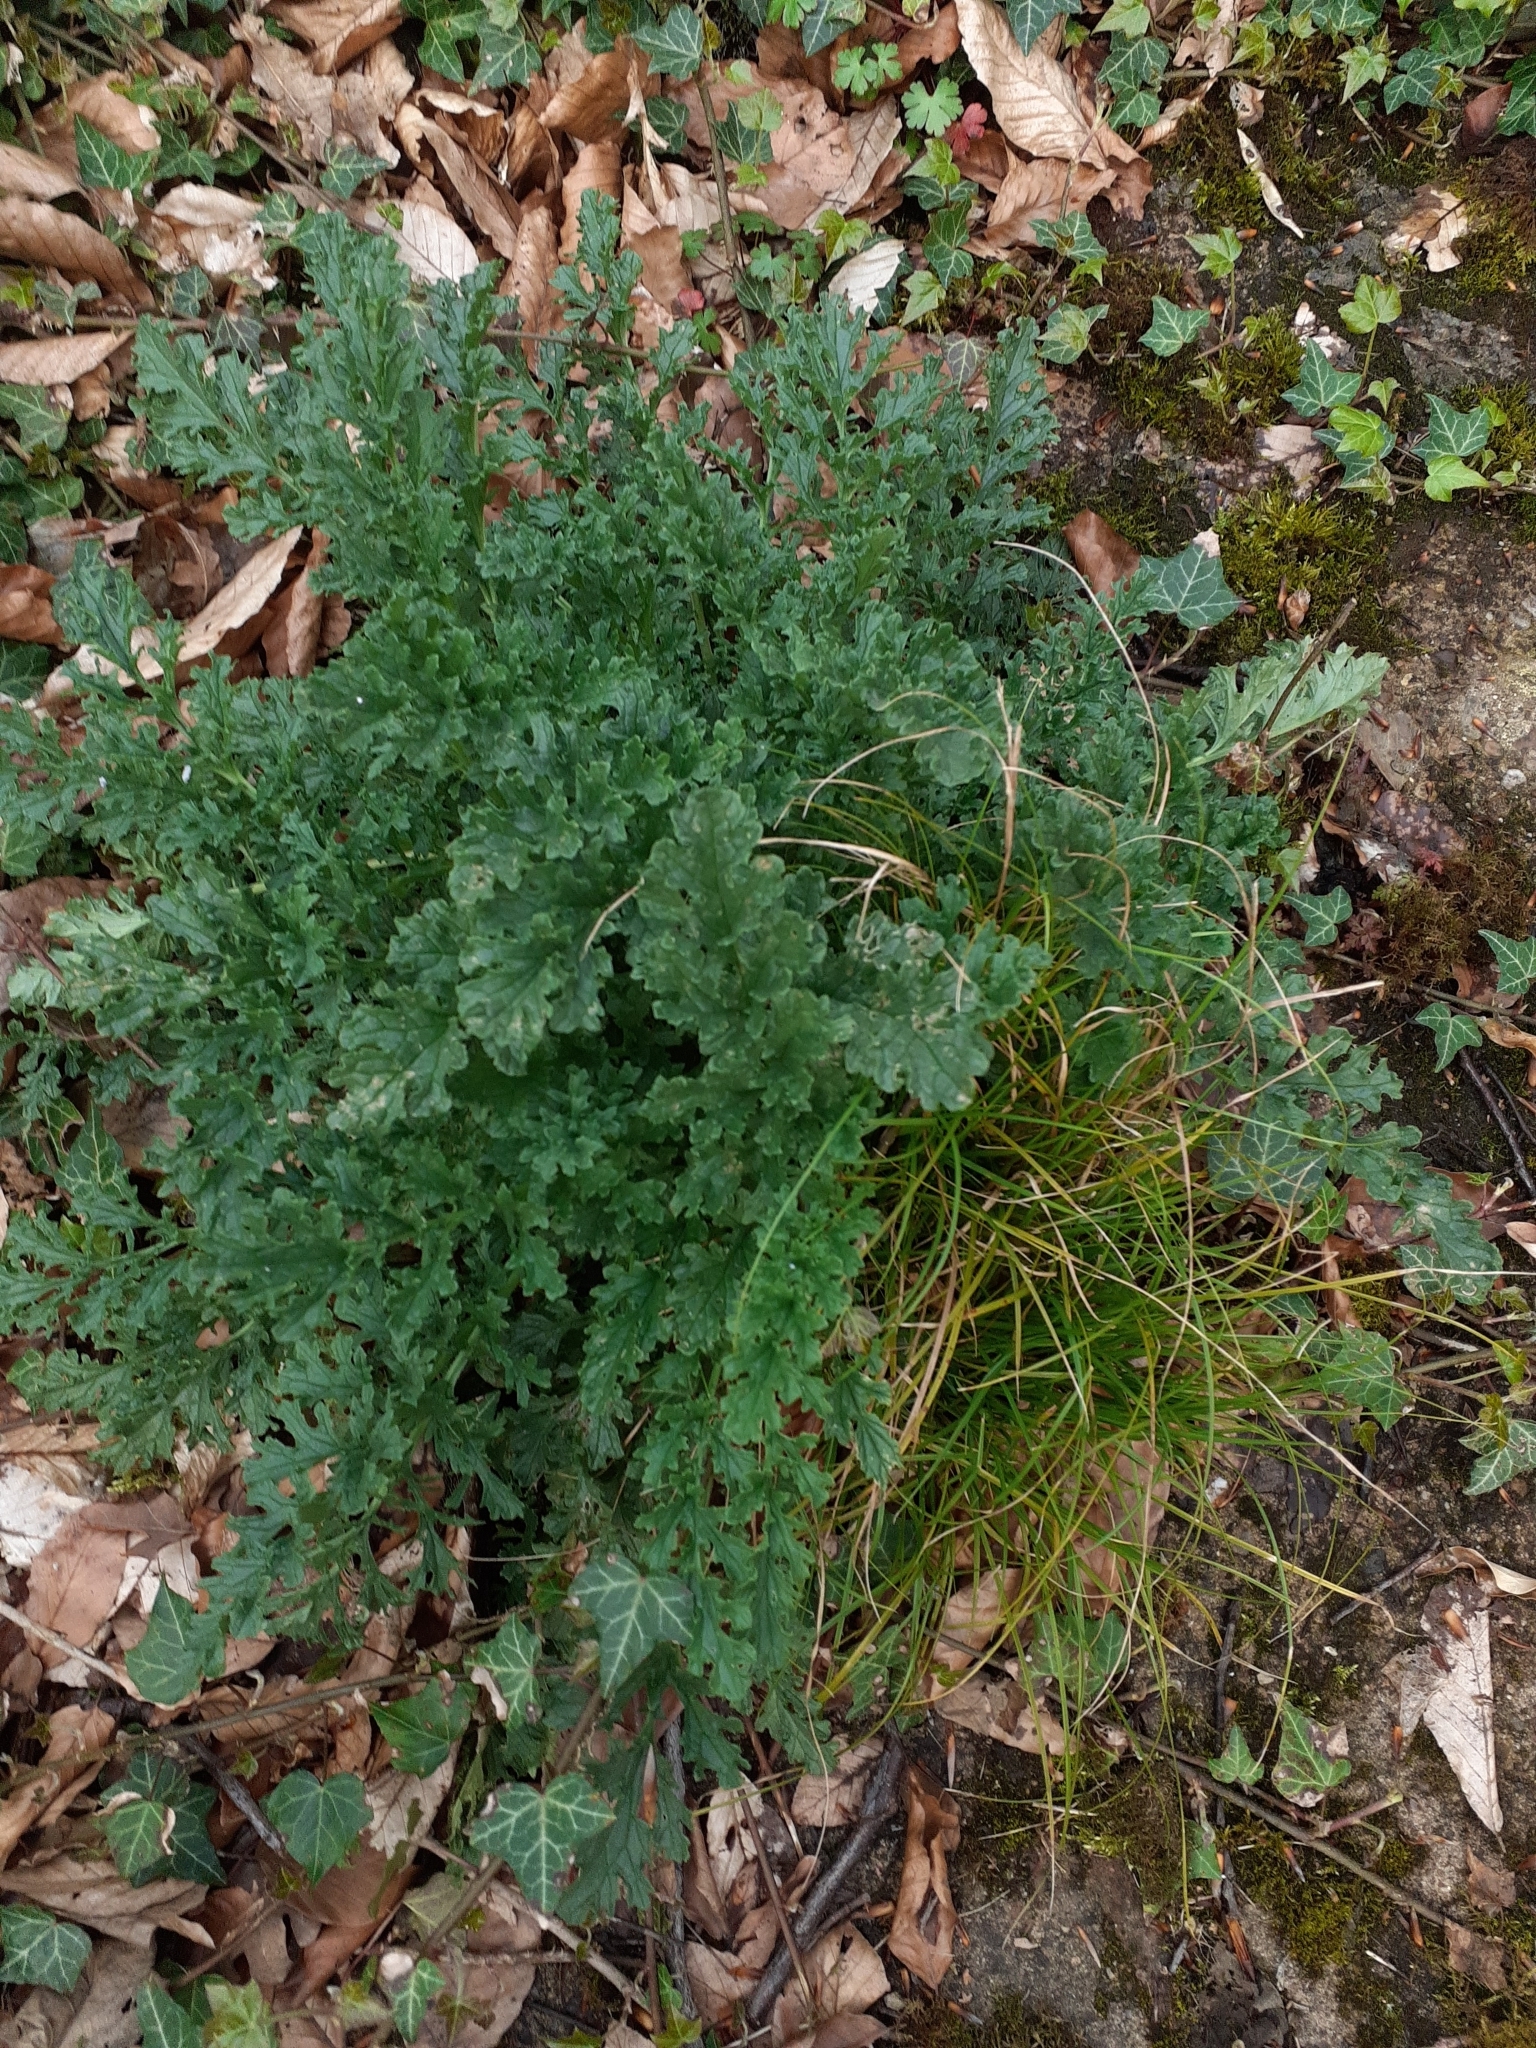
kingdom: Plantae
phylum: Tracheophyta
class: Magnoliopsida
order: Asterales
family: Asteraceae
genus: Jacobaea
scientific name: Jacobaea vulgaris
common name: Stinking willie
